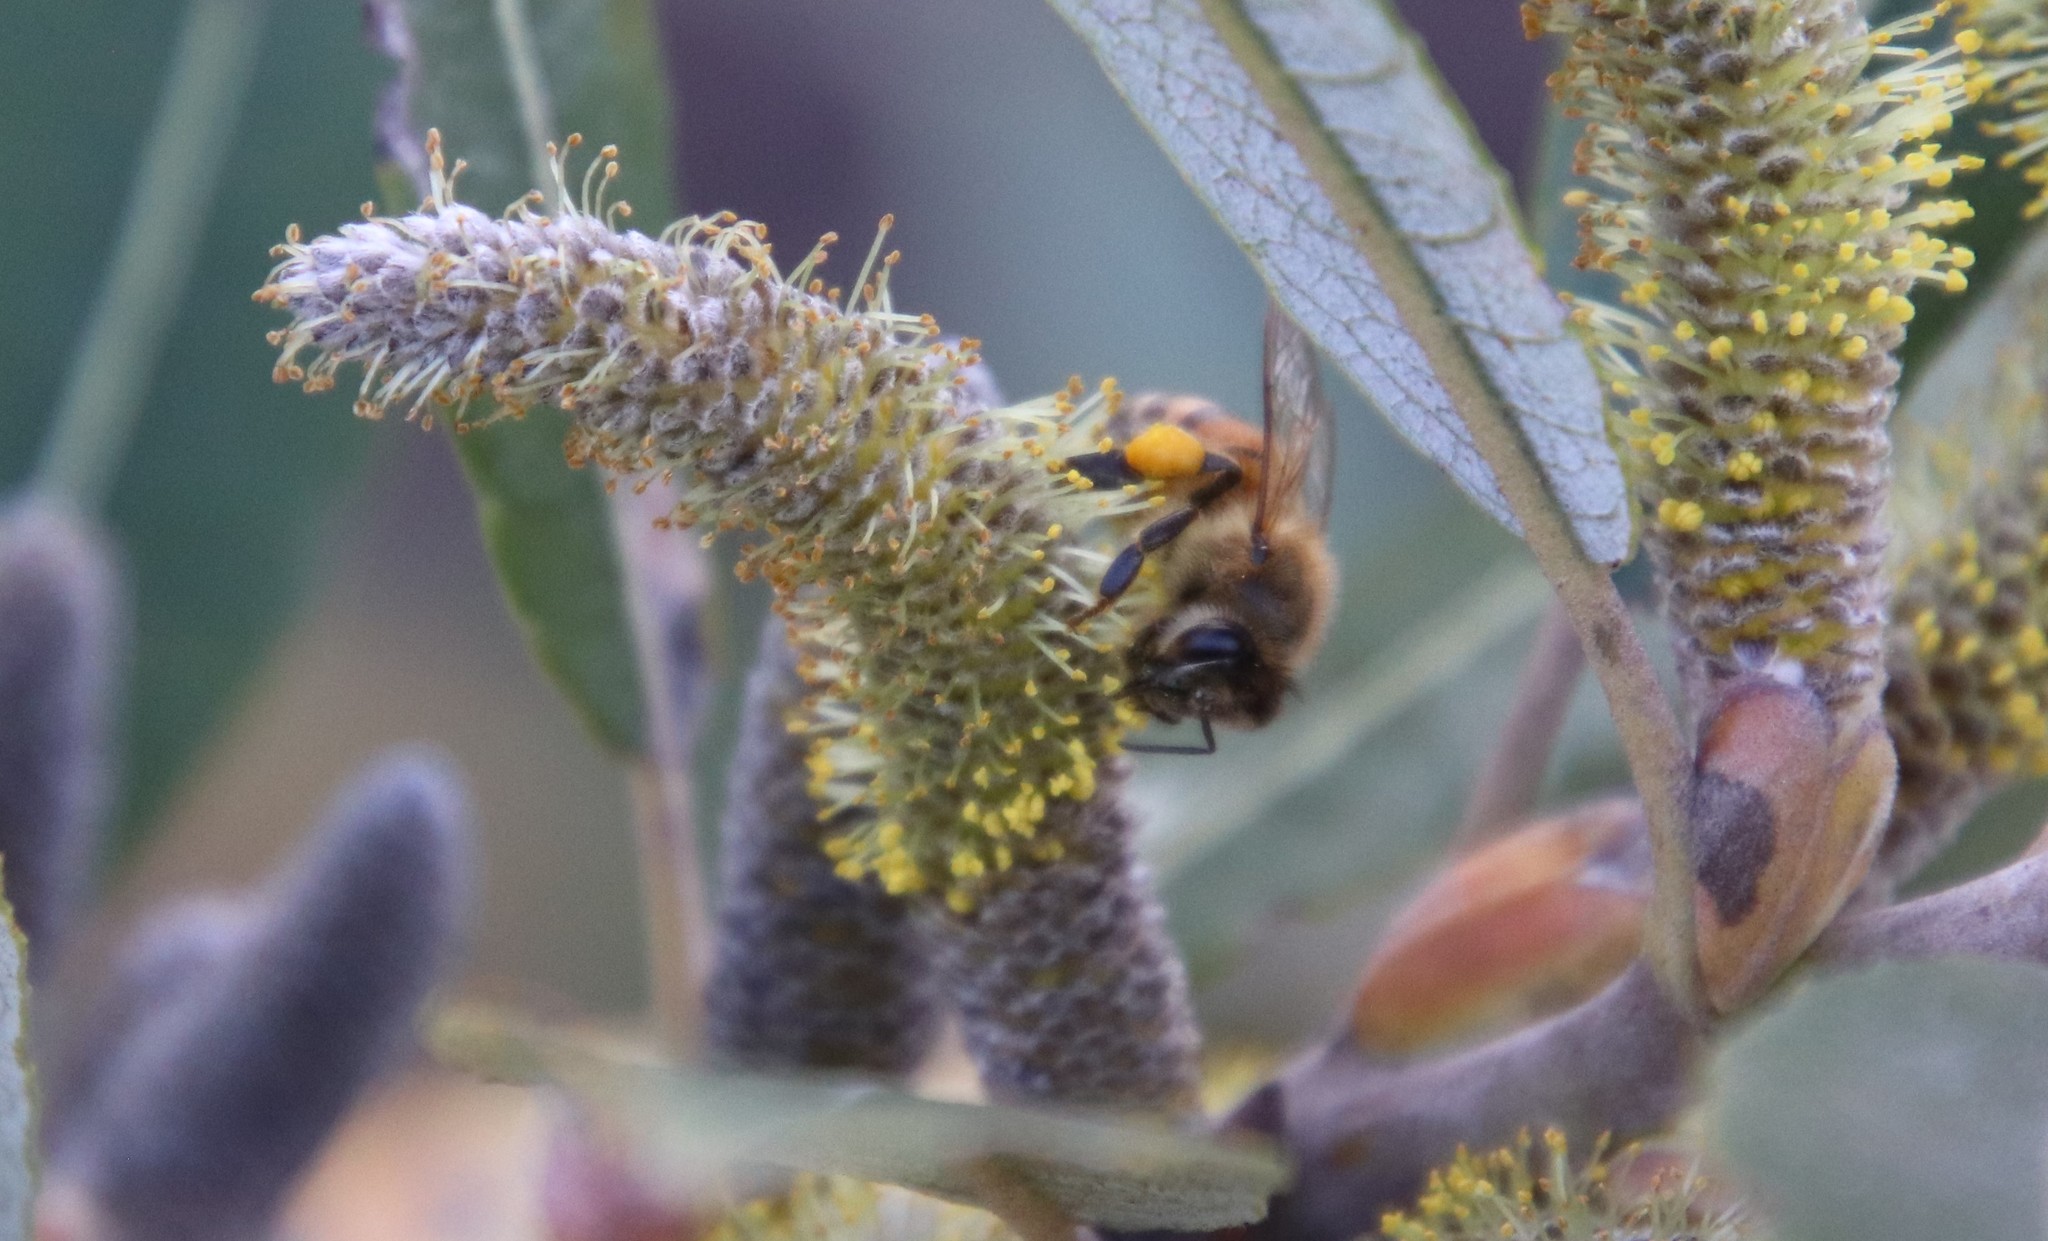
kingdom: Animalia
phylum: Arthropoda
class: Insecta
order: Hymenoptera
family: Apidae
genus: Apis
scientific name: Apis mellifera
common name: Honey bee
